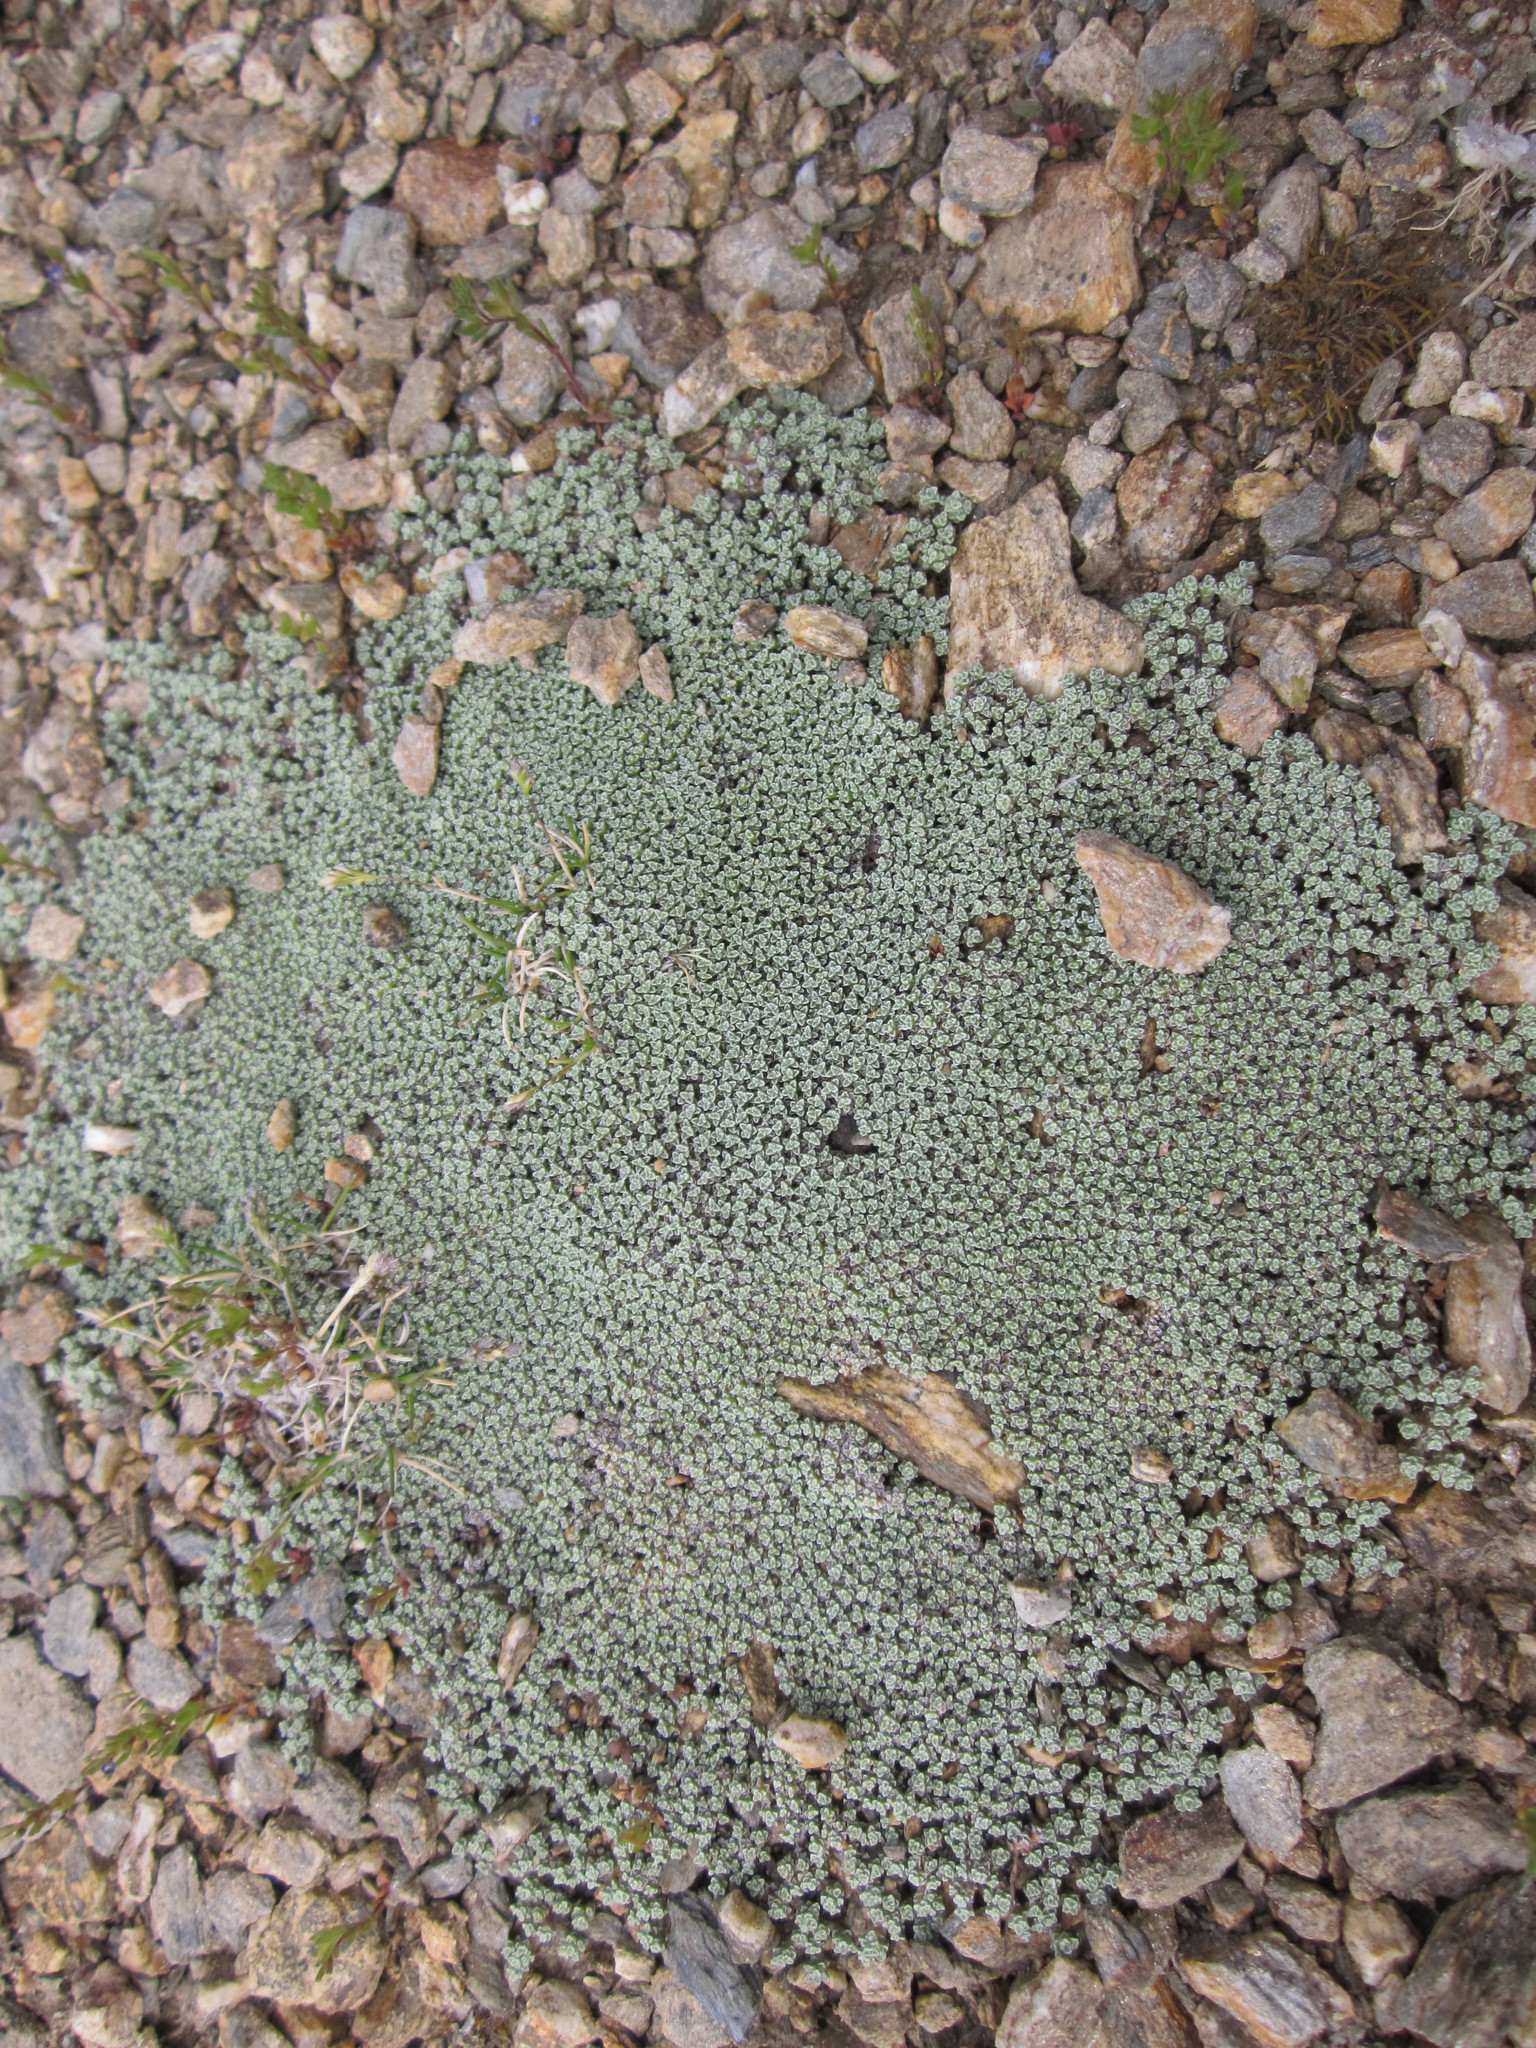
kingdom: Plantae
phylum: Tracheophyta
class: Magnoliopsida
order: Asterales
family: Asteraceae
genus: Raoulia
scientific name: Raoulia australis
